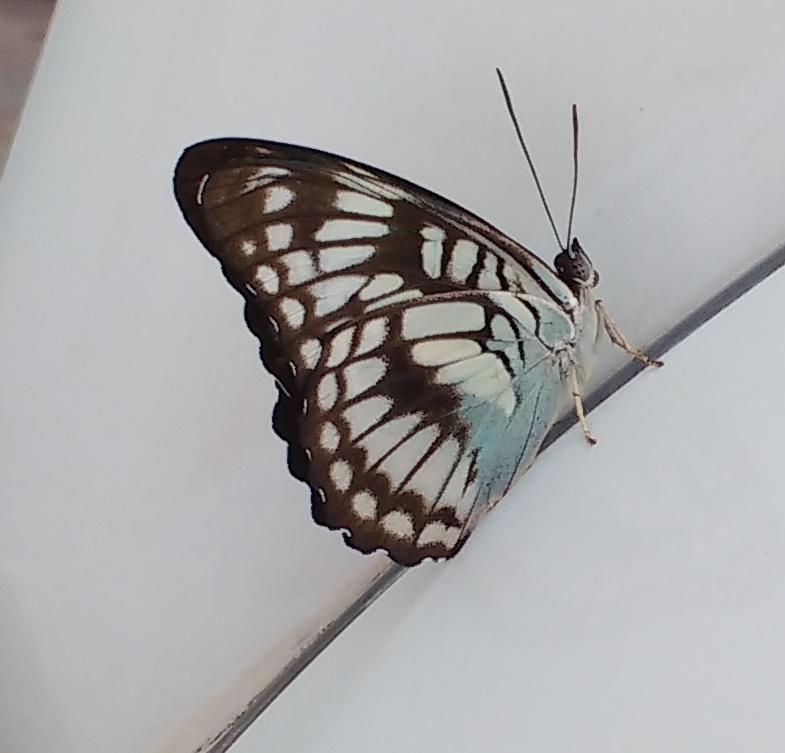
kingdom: Animalia
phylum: Arthropoda
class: Insecta
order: Lepidoptera
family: Nymphalidae
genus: Parathyma
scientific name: Parathyma ranga
